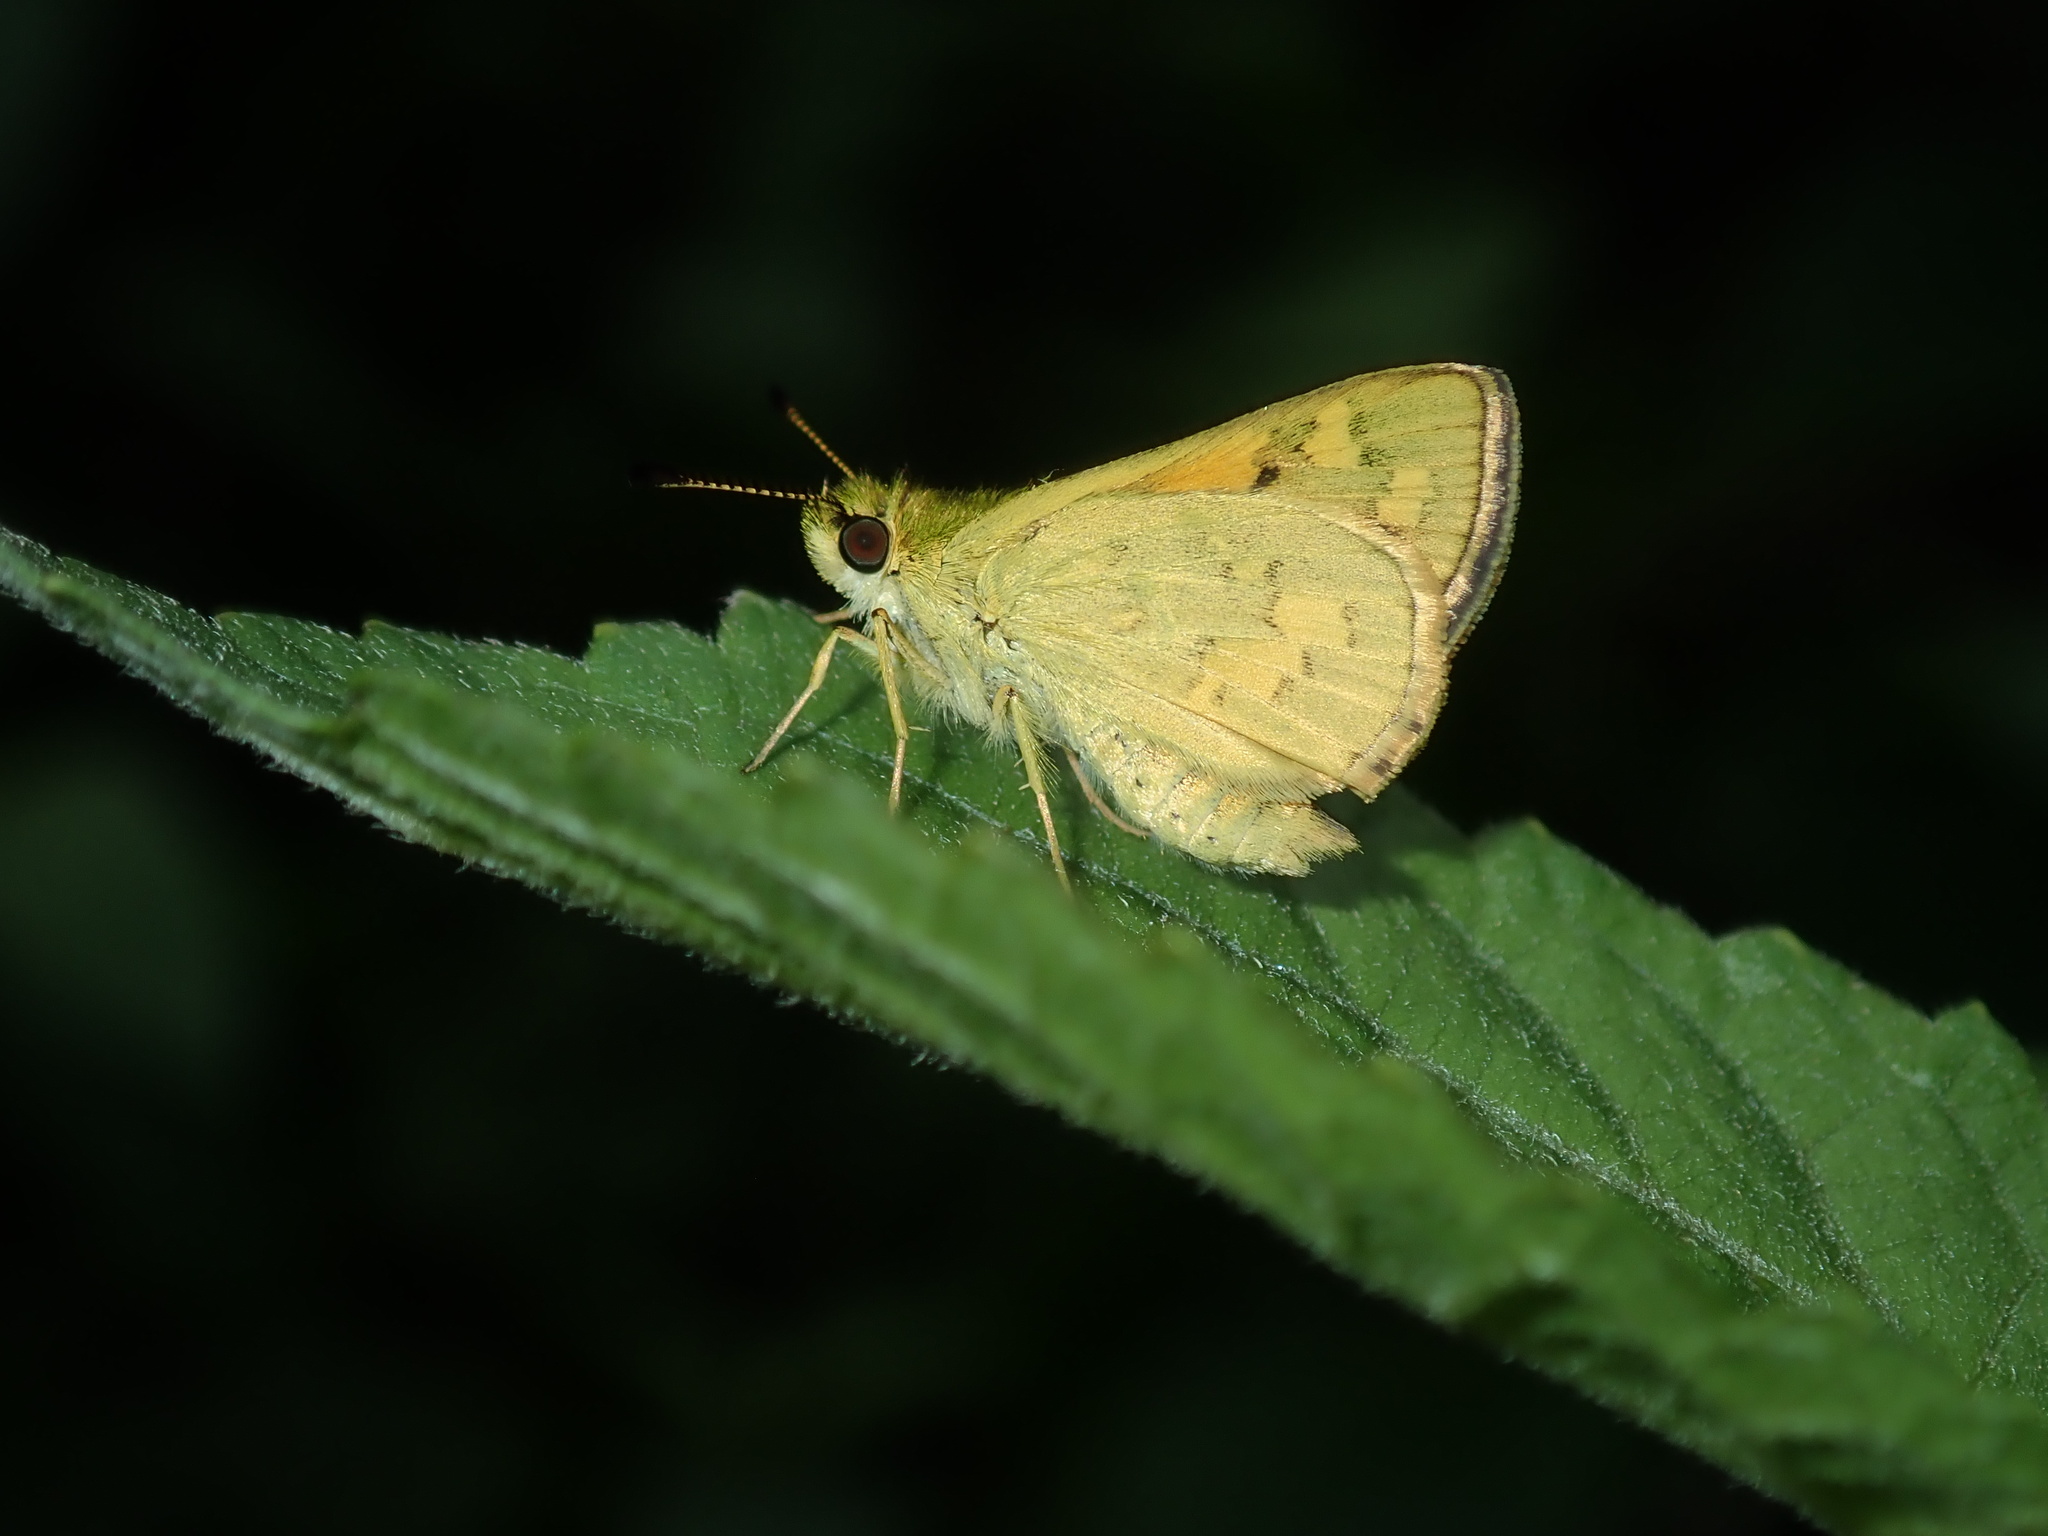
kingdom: Animalia
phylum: Arthropoda
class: Insecta
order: Lepidoptera
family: Hesperiidae
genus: Ocybadistes
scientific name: Ocybadistes walkeri
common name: Yellow-banded dart
